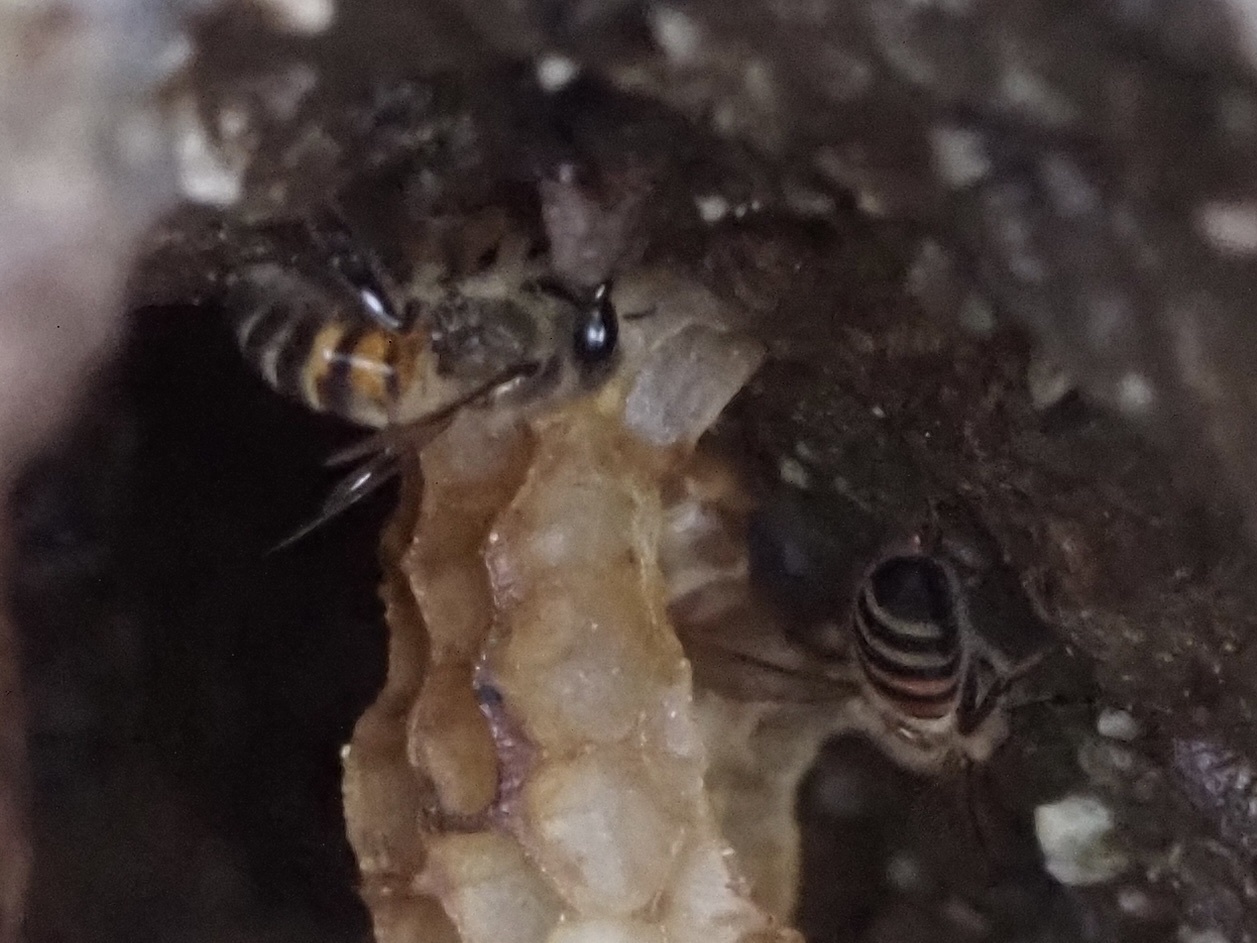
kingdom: Animalia
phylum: Arthropoda
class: Insecta
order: Hymenoptera
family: Apidae
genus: Apis
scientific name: Apis mellifera
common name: Honey bee
